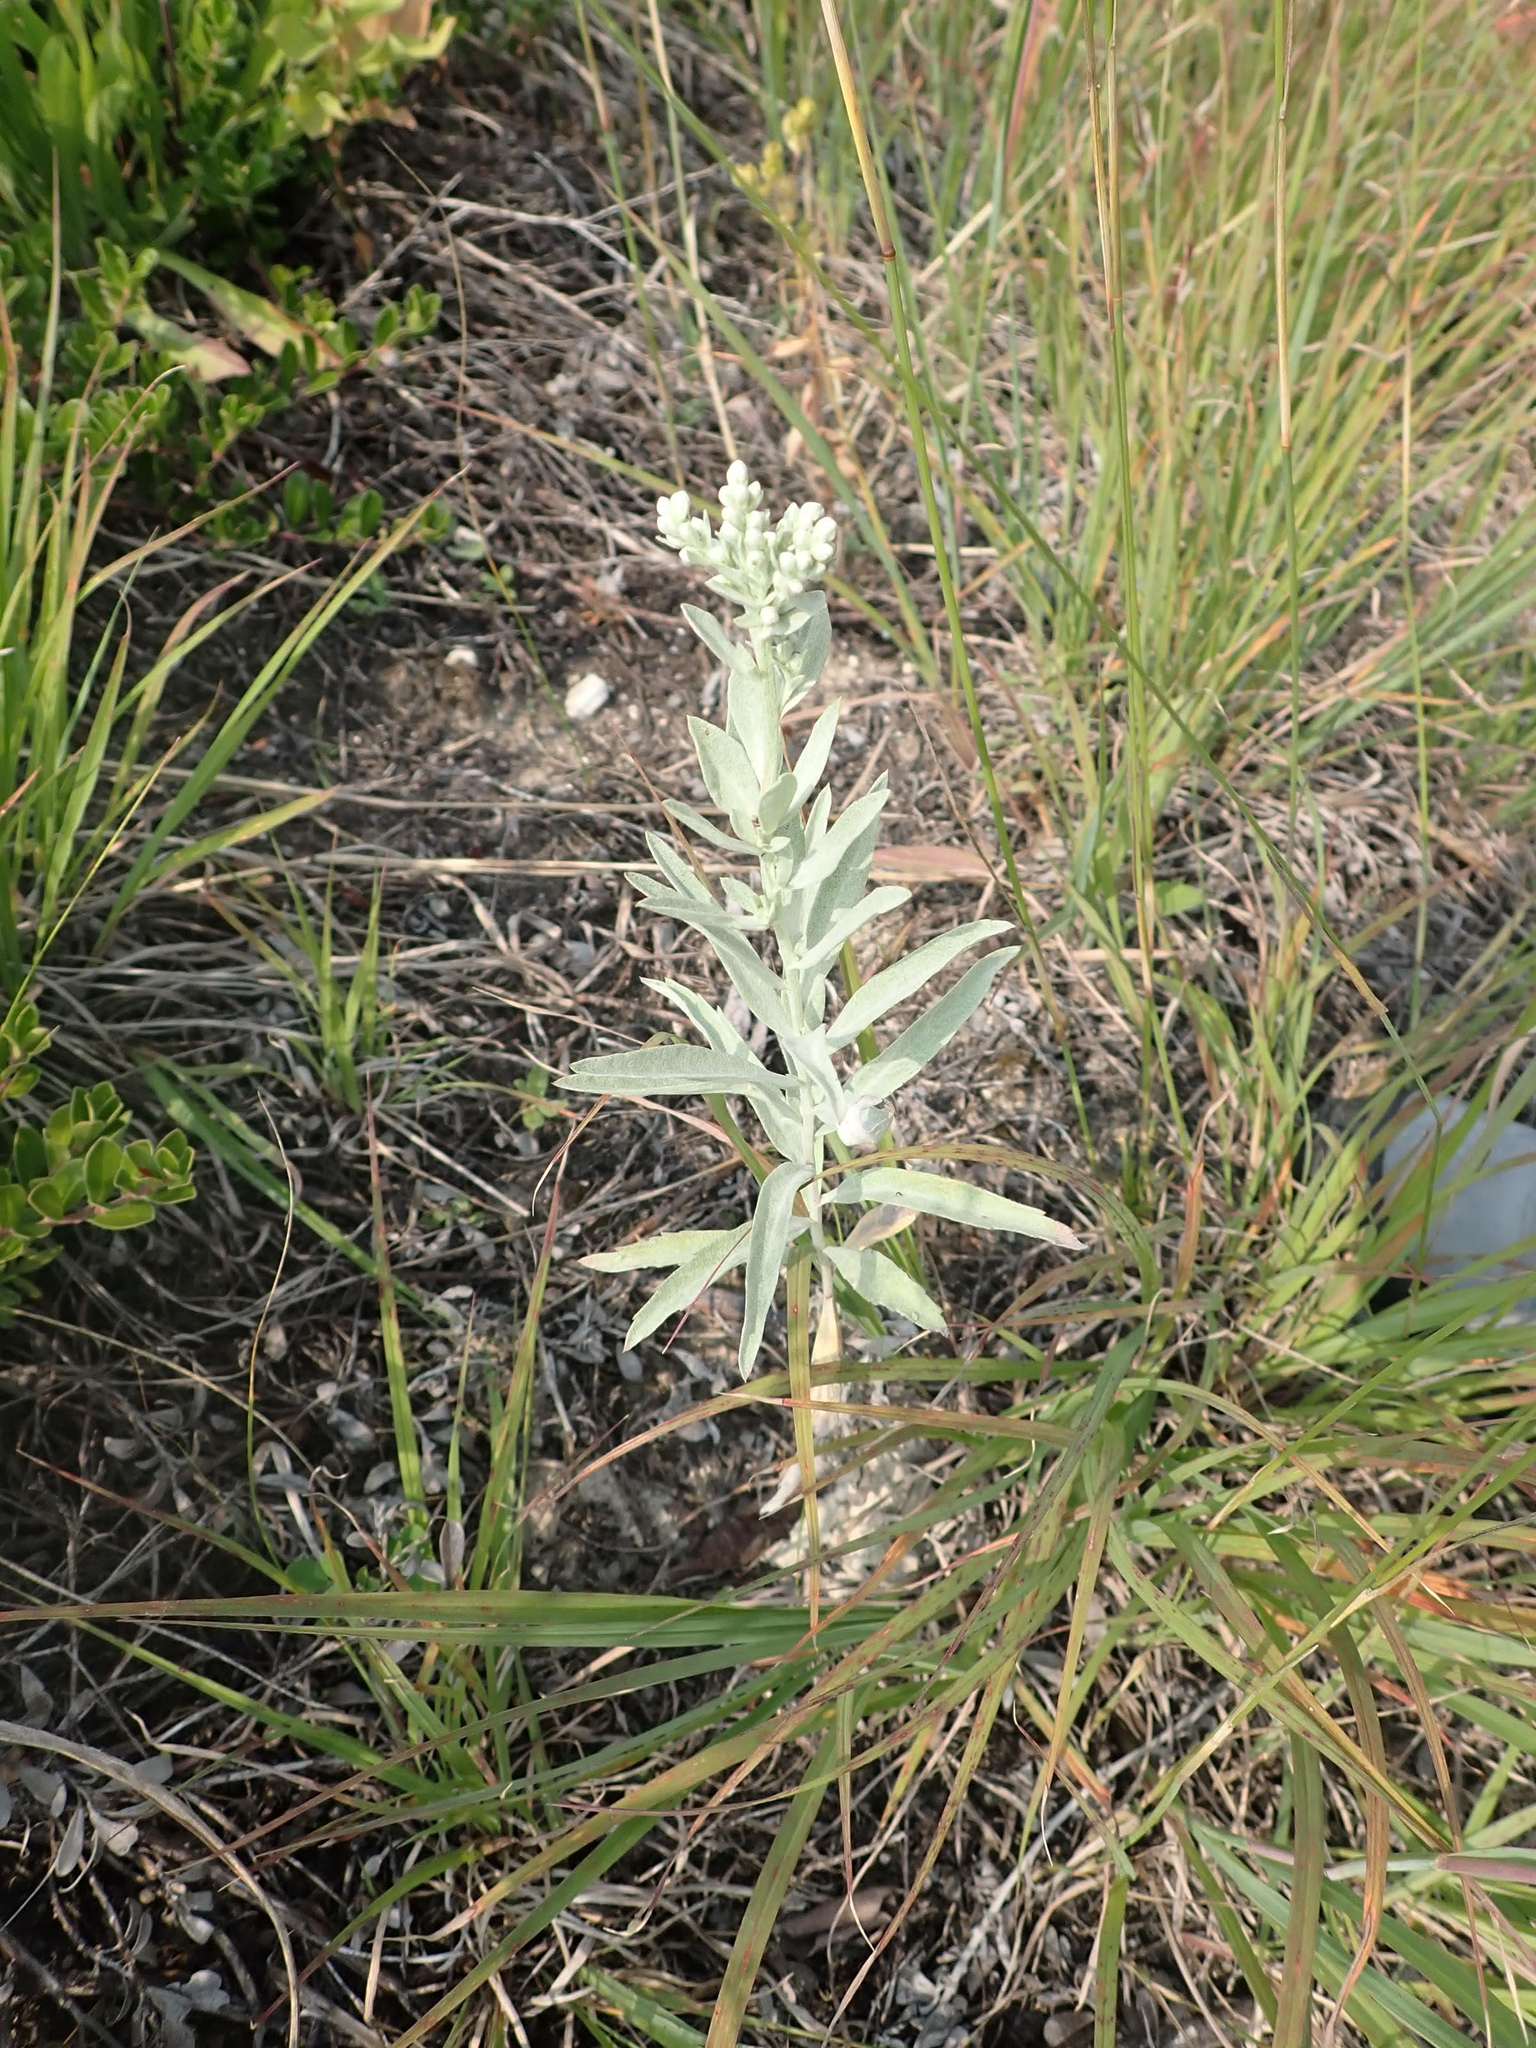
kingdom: Plantae
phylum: Tracheophyta
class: Magnoliopsida
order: Asterales
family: Asteraceae
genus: Artemisia
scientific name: Artemisia ludoviciana
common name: Western mugwort
